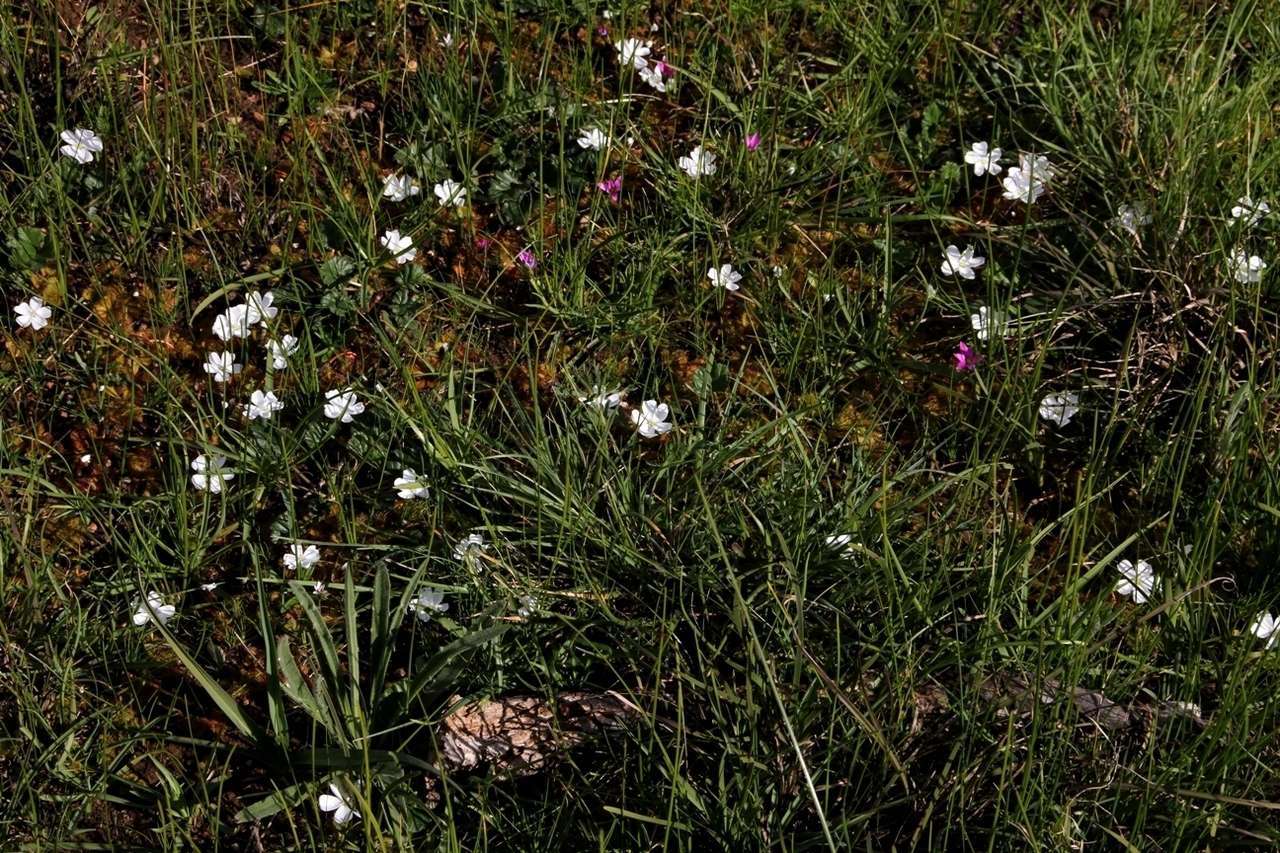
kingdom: Plantae
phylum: Tracheophyta
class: Magnoliopsida
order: Caryophyllales
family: Droseraceae
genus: Drosera
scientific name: Drosera aberrans
